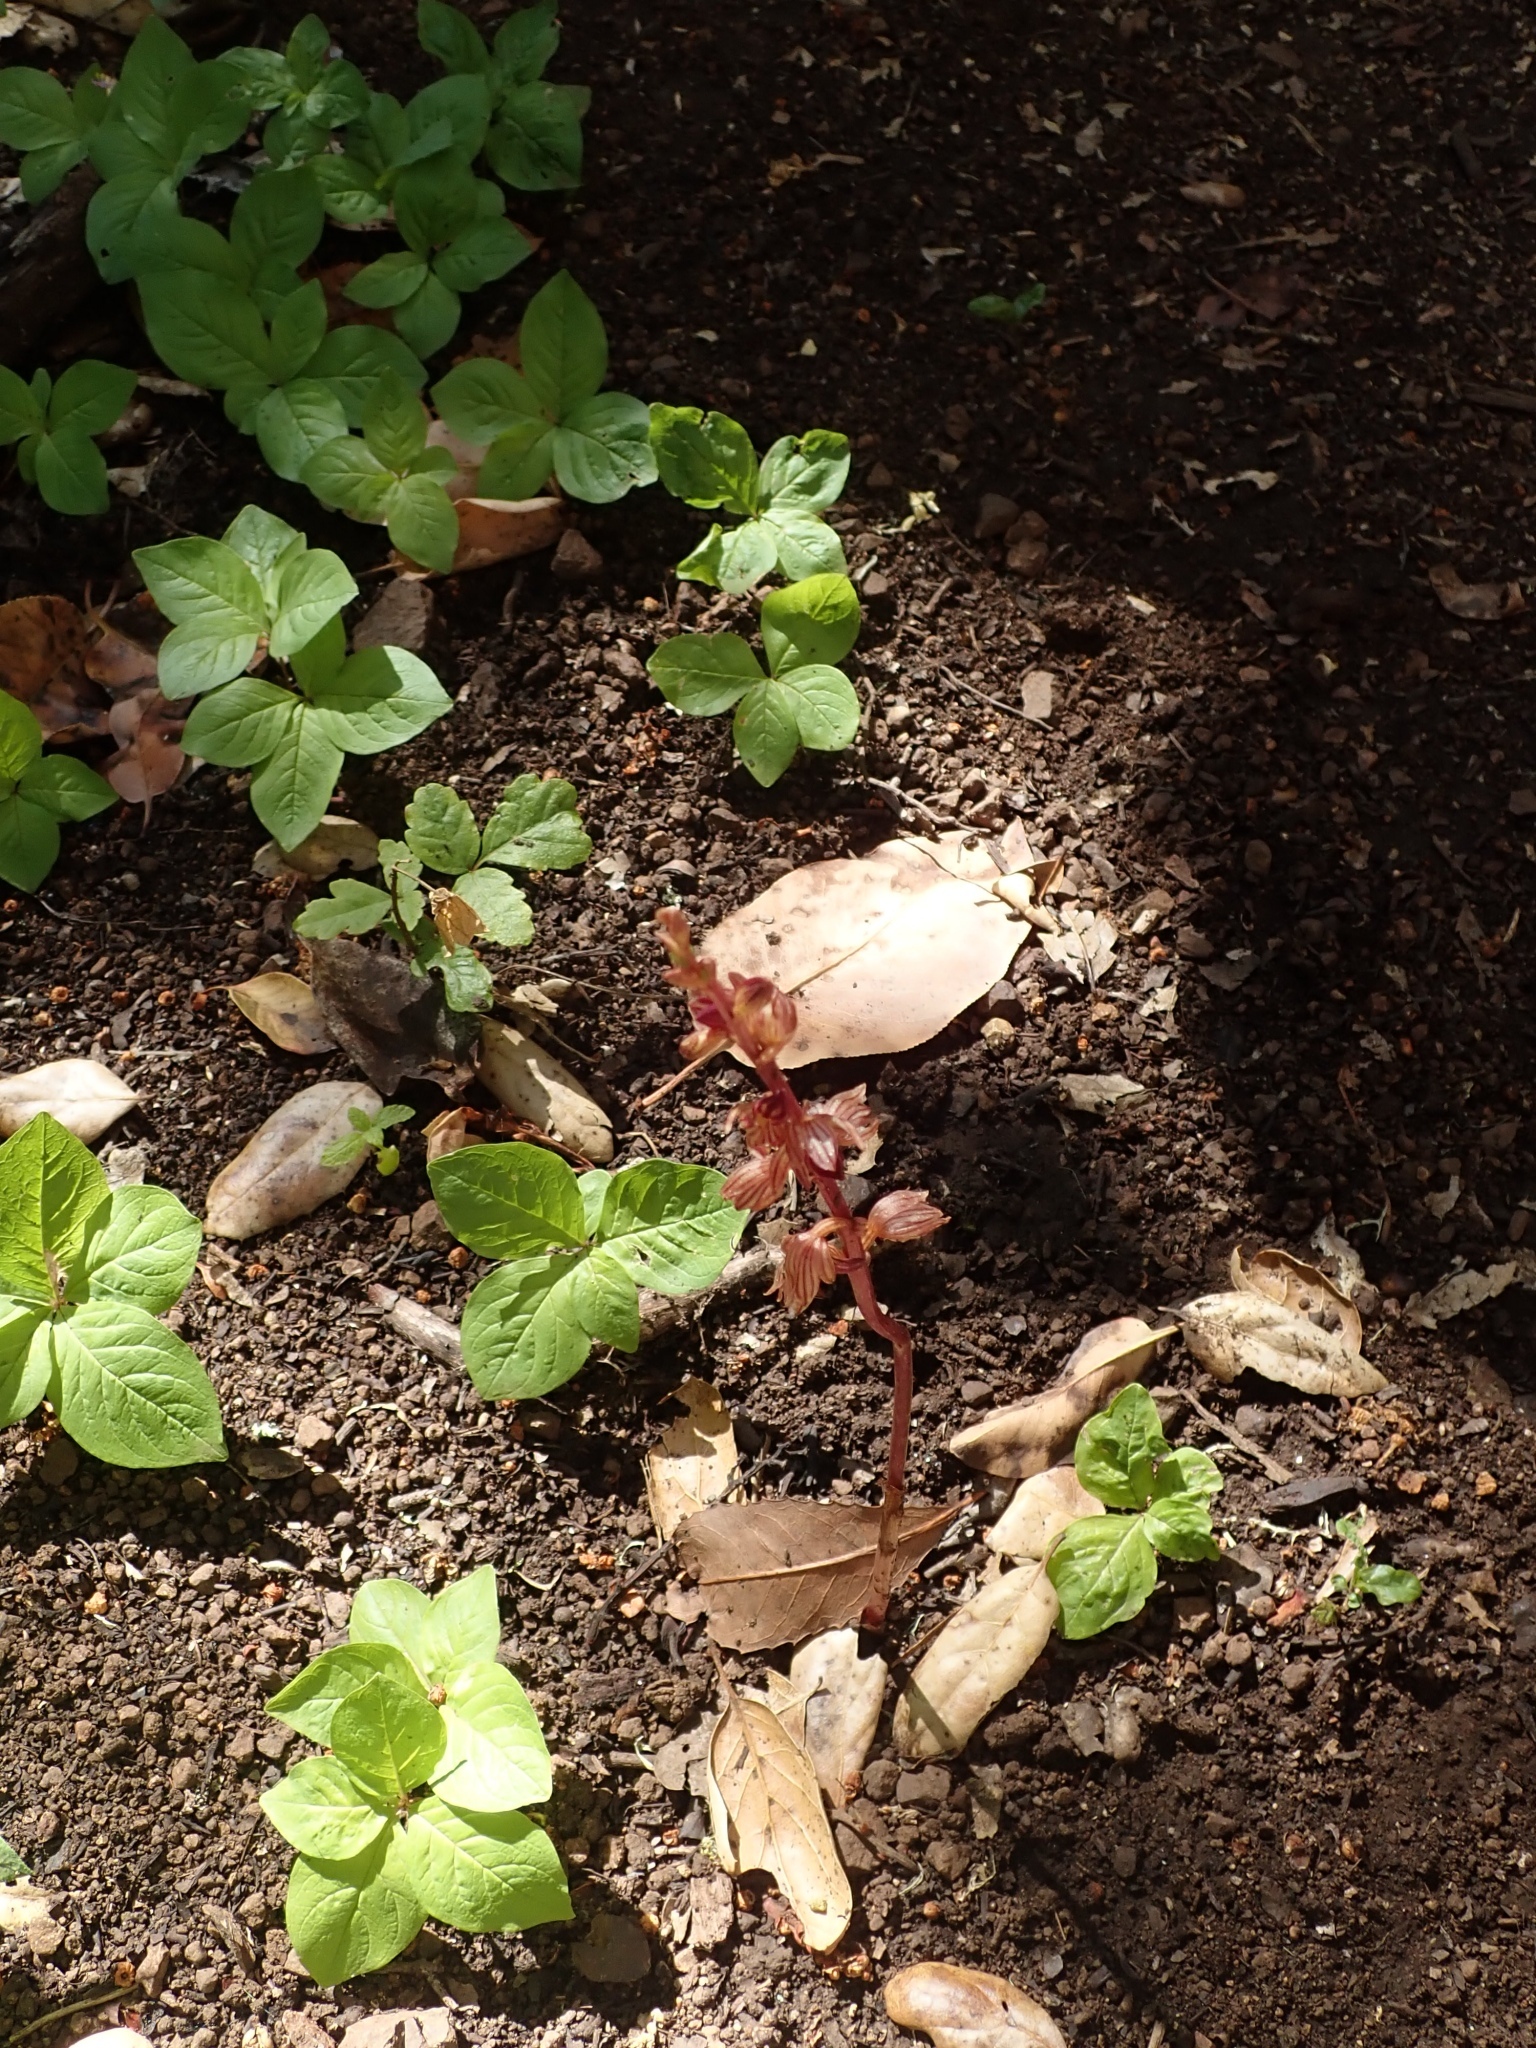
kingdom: Plantae
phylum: Tracheophyta
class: Liliopsida
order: Asparagales
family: Orchidaceae
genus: Corallorhiza
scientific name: Corallorhiza striata
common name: Hooded coralroot
